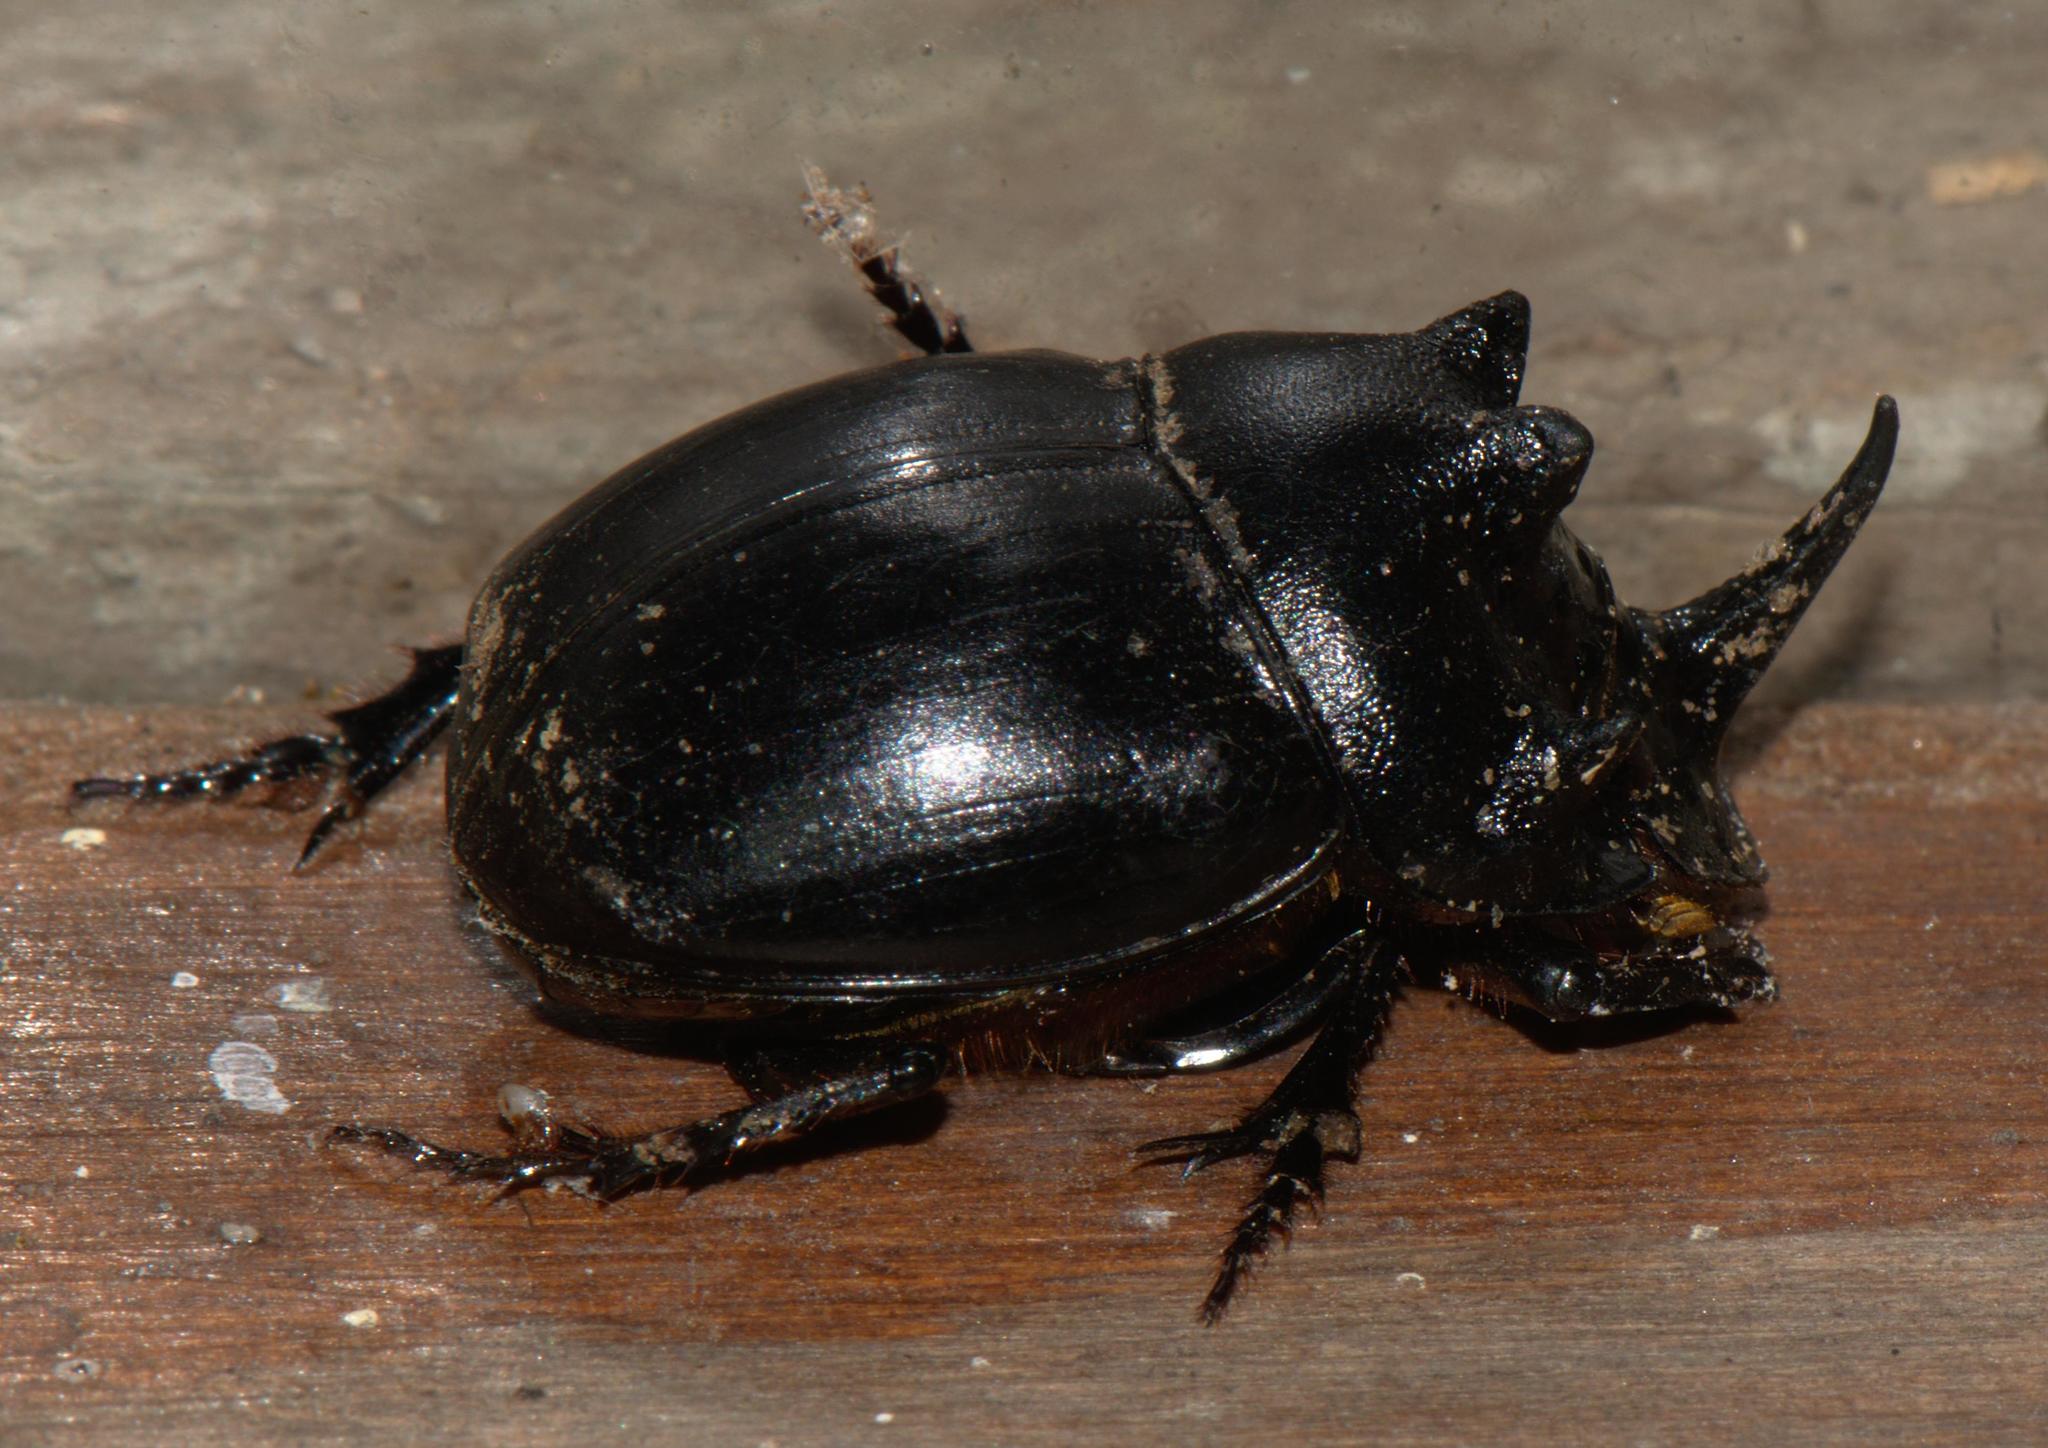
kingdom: Animalia
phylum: Arthropoda
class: Insecta
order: Coleoptera
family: Scarabaeidae
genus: Copris
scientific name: Copris sacontala
